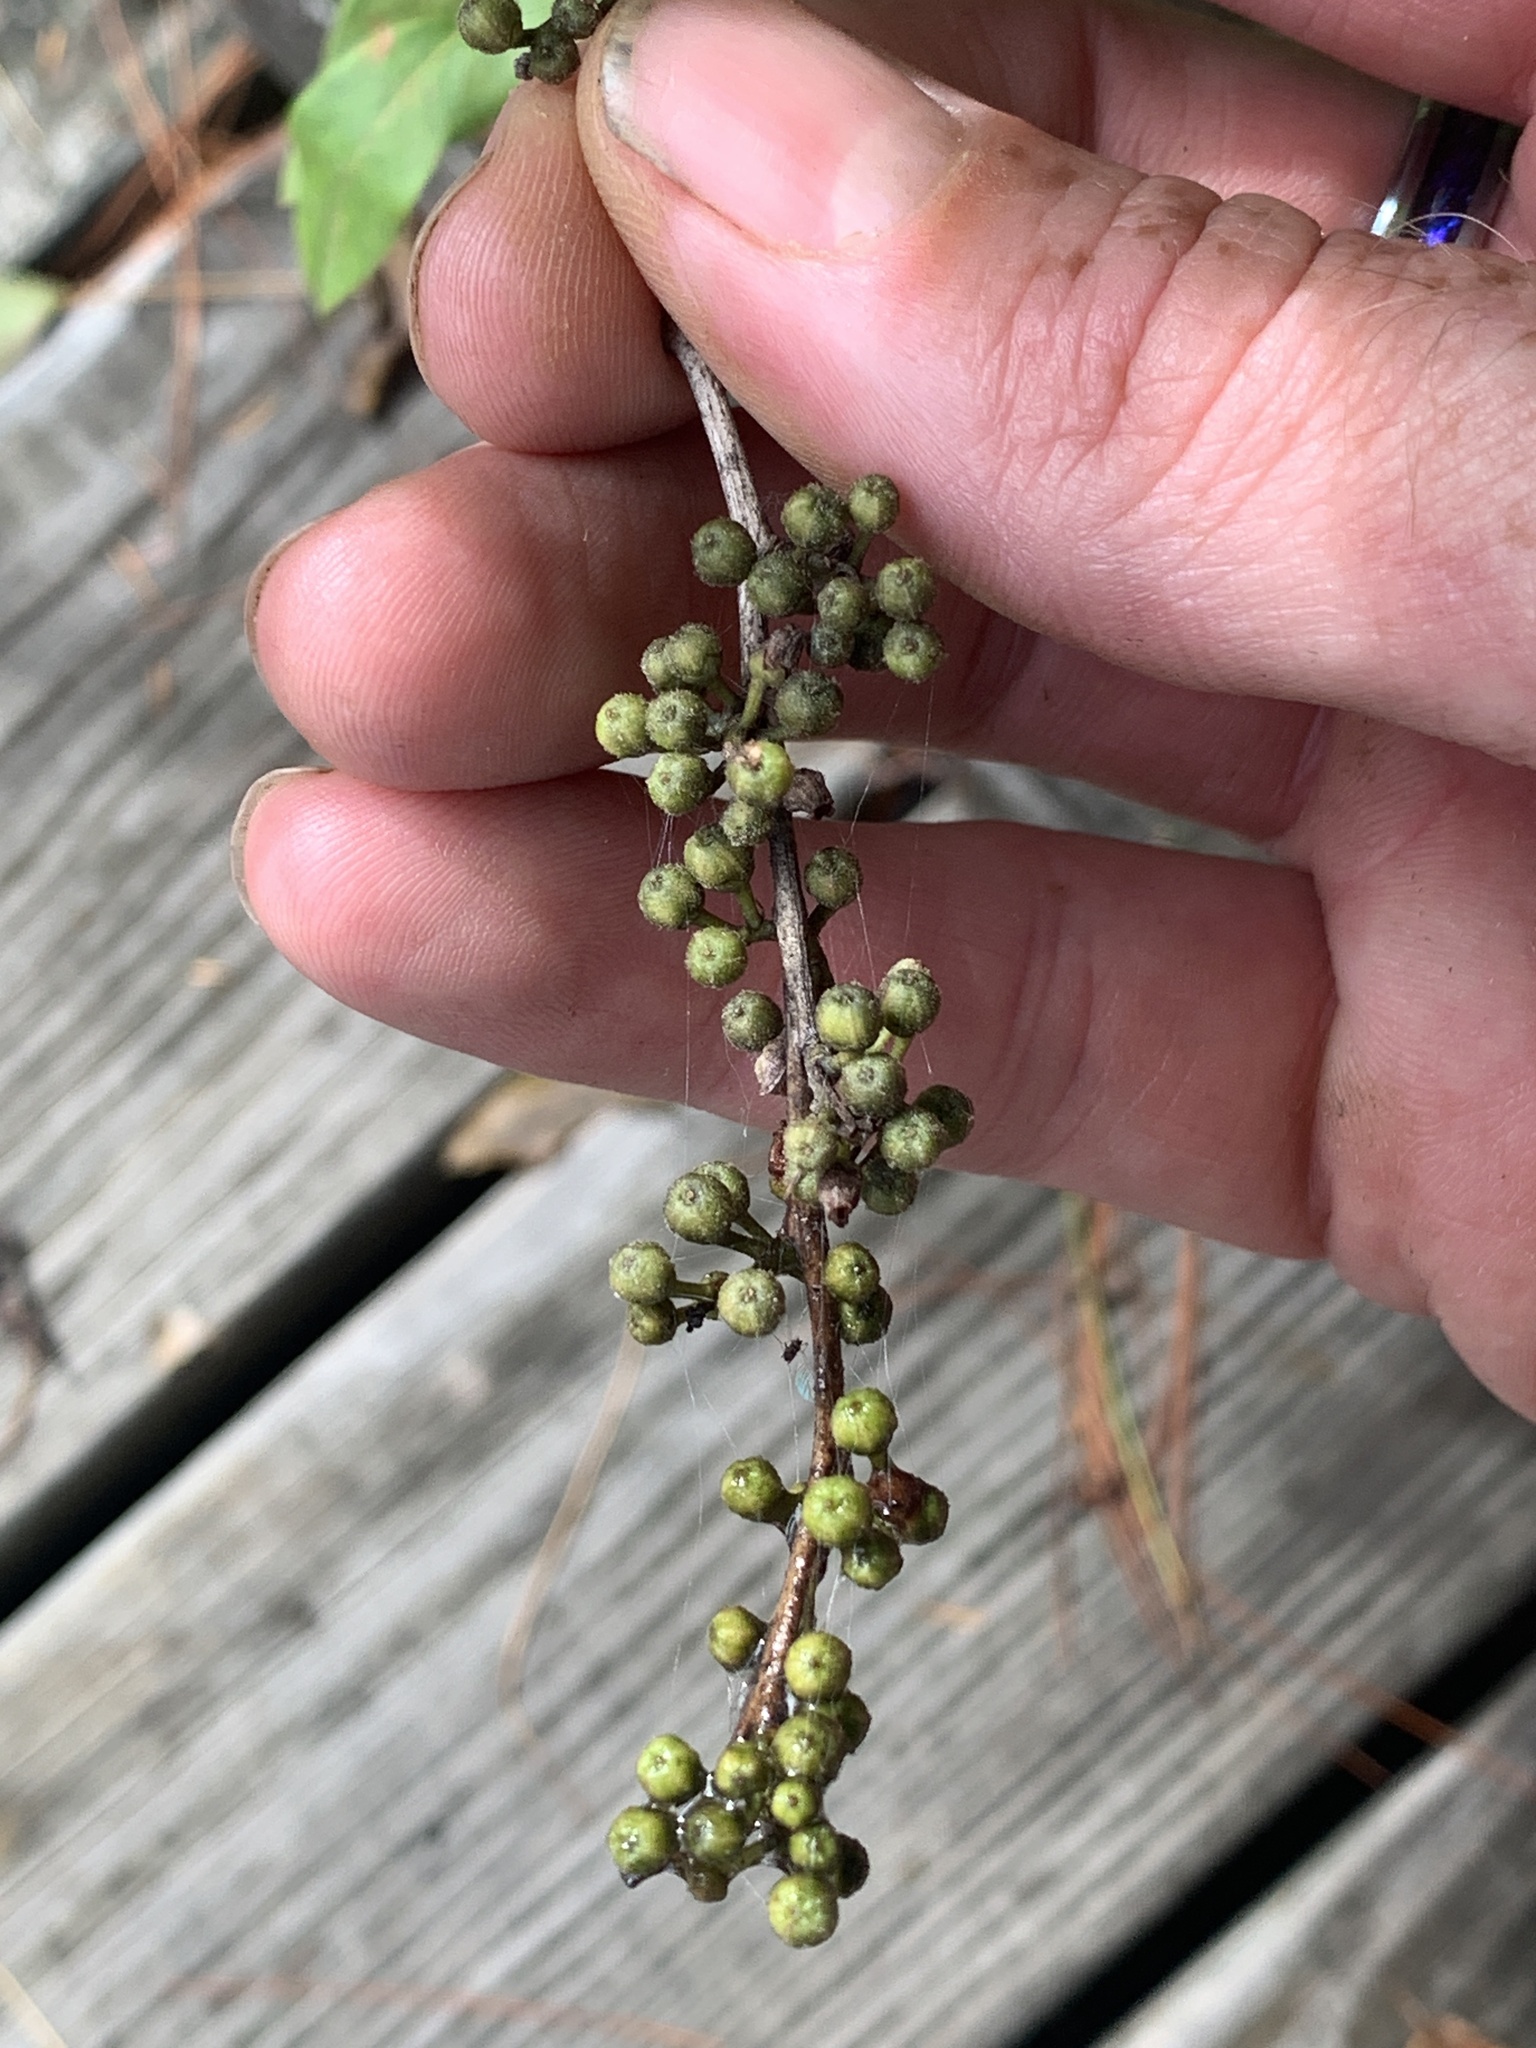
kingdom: Plantae
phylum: Tracheophyta
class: Magnoliopsida
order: Ericales
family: Ericaceae
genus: Lyonia
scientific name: Lyonia ligustrina
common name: Maleberry
